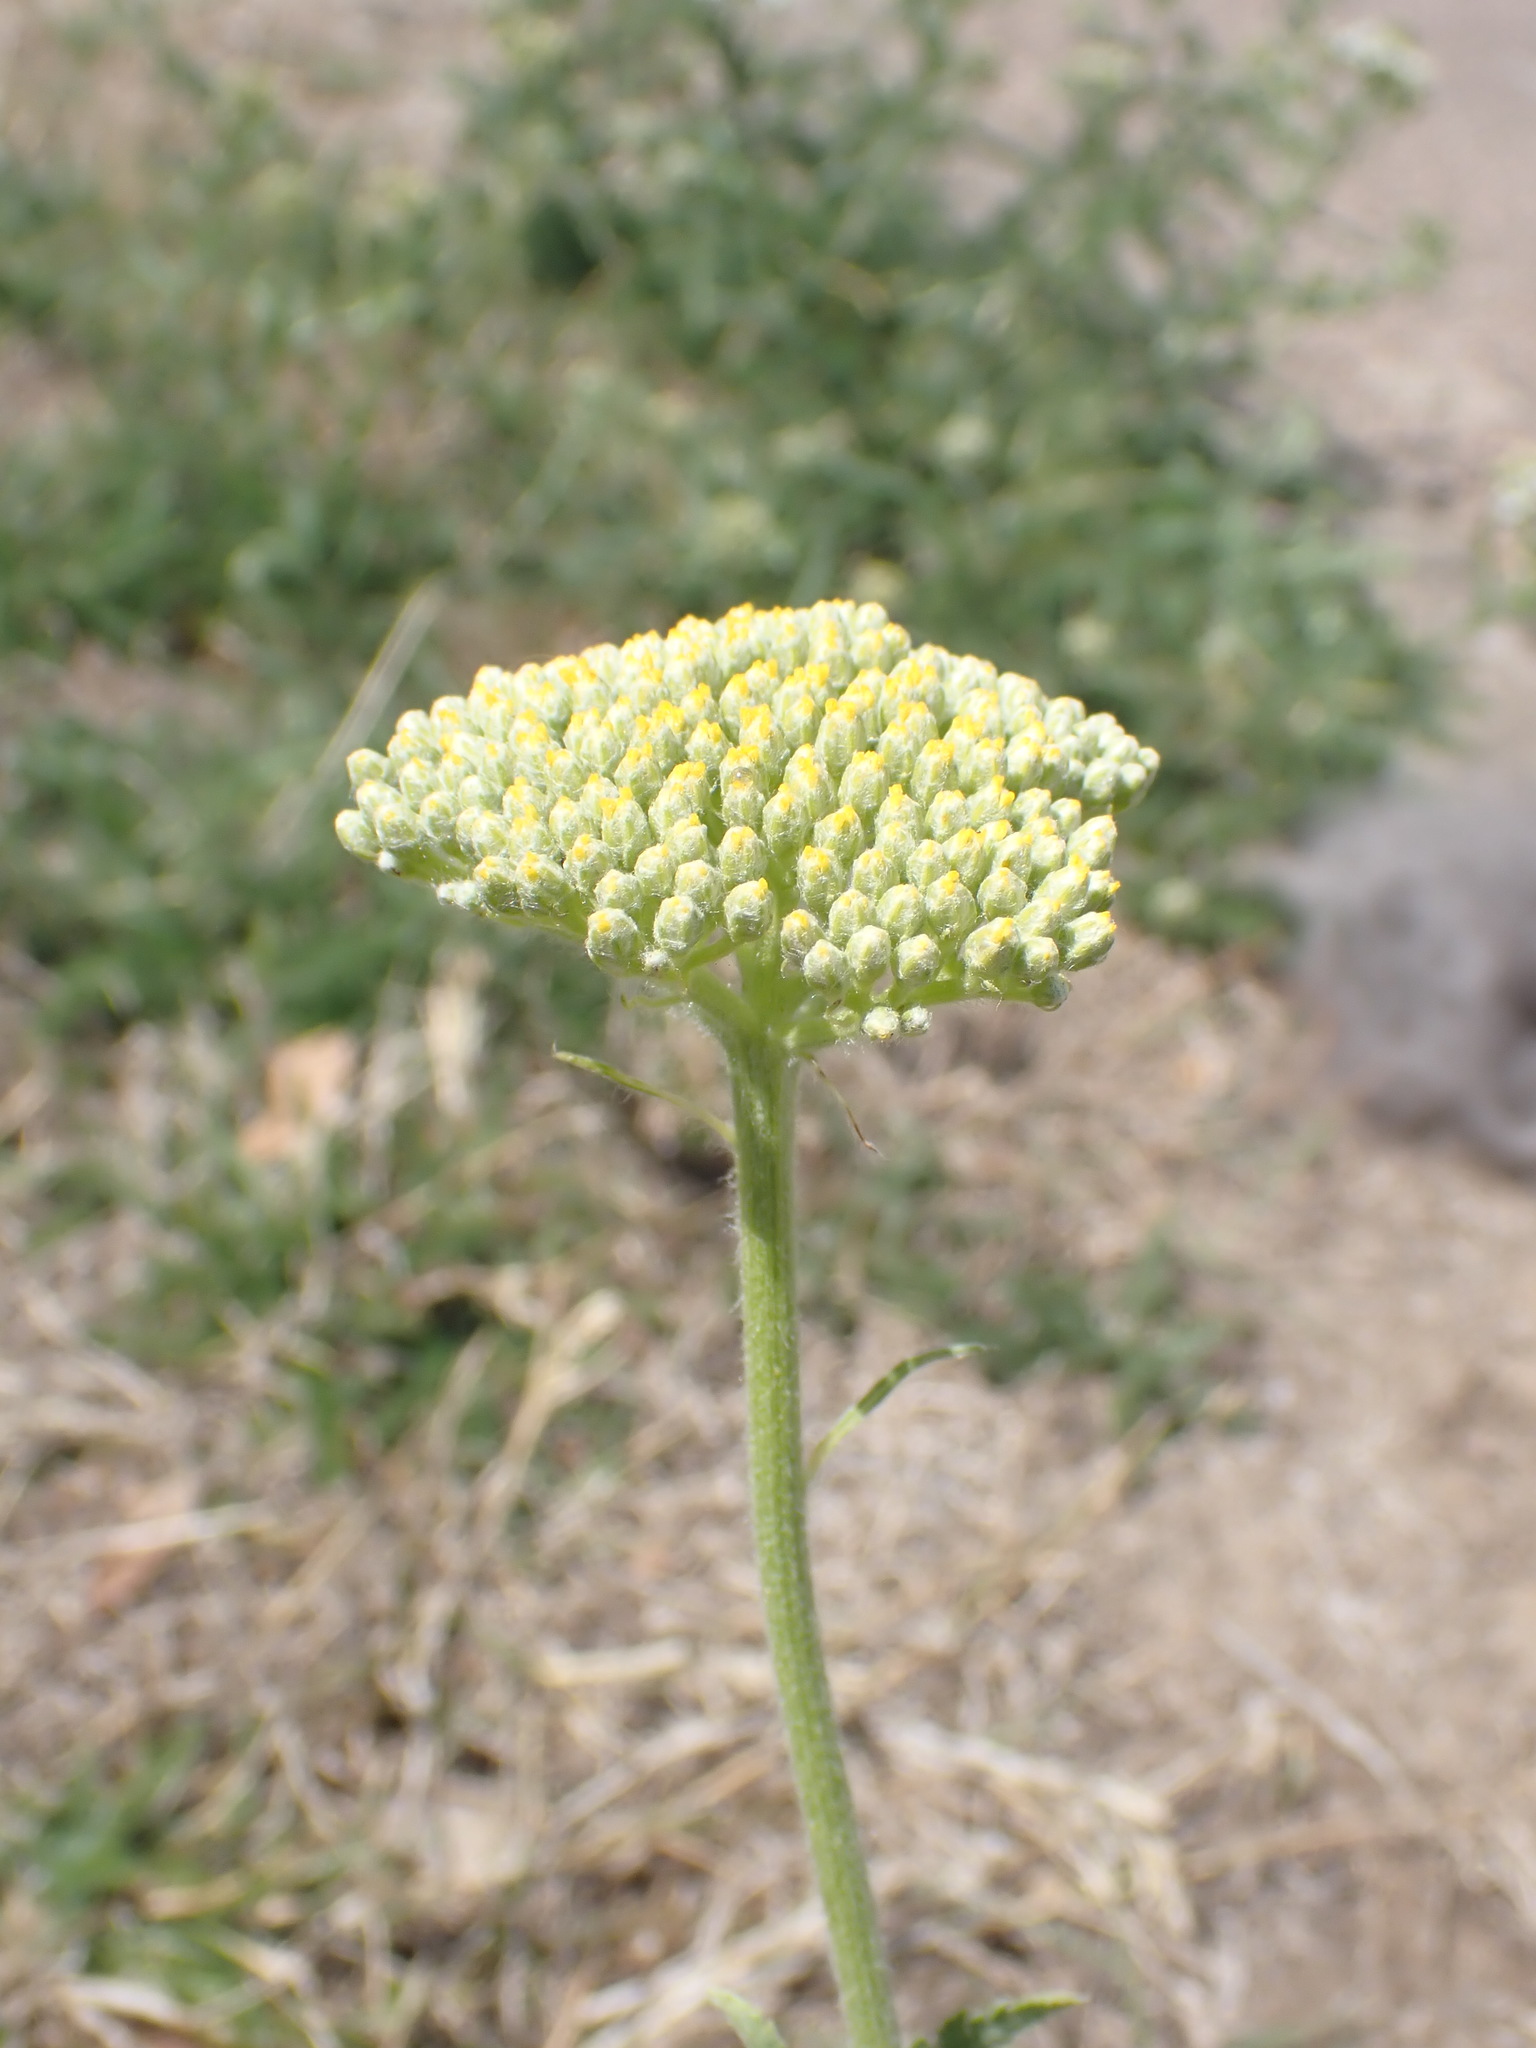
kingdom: Plantae
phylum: Tracheophyta
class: Magnoliopsida
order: Asterales
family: Asteraceae
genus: Achillea
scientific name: Achillea filipendulina
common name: Fernleaf yarrow
